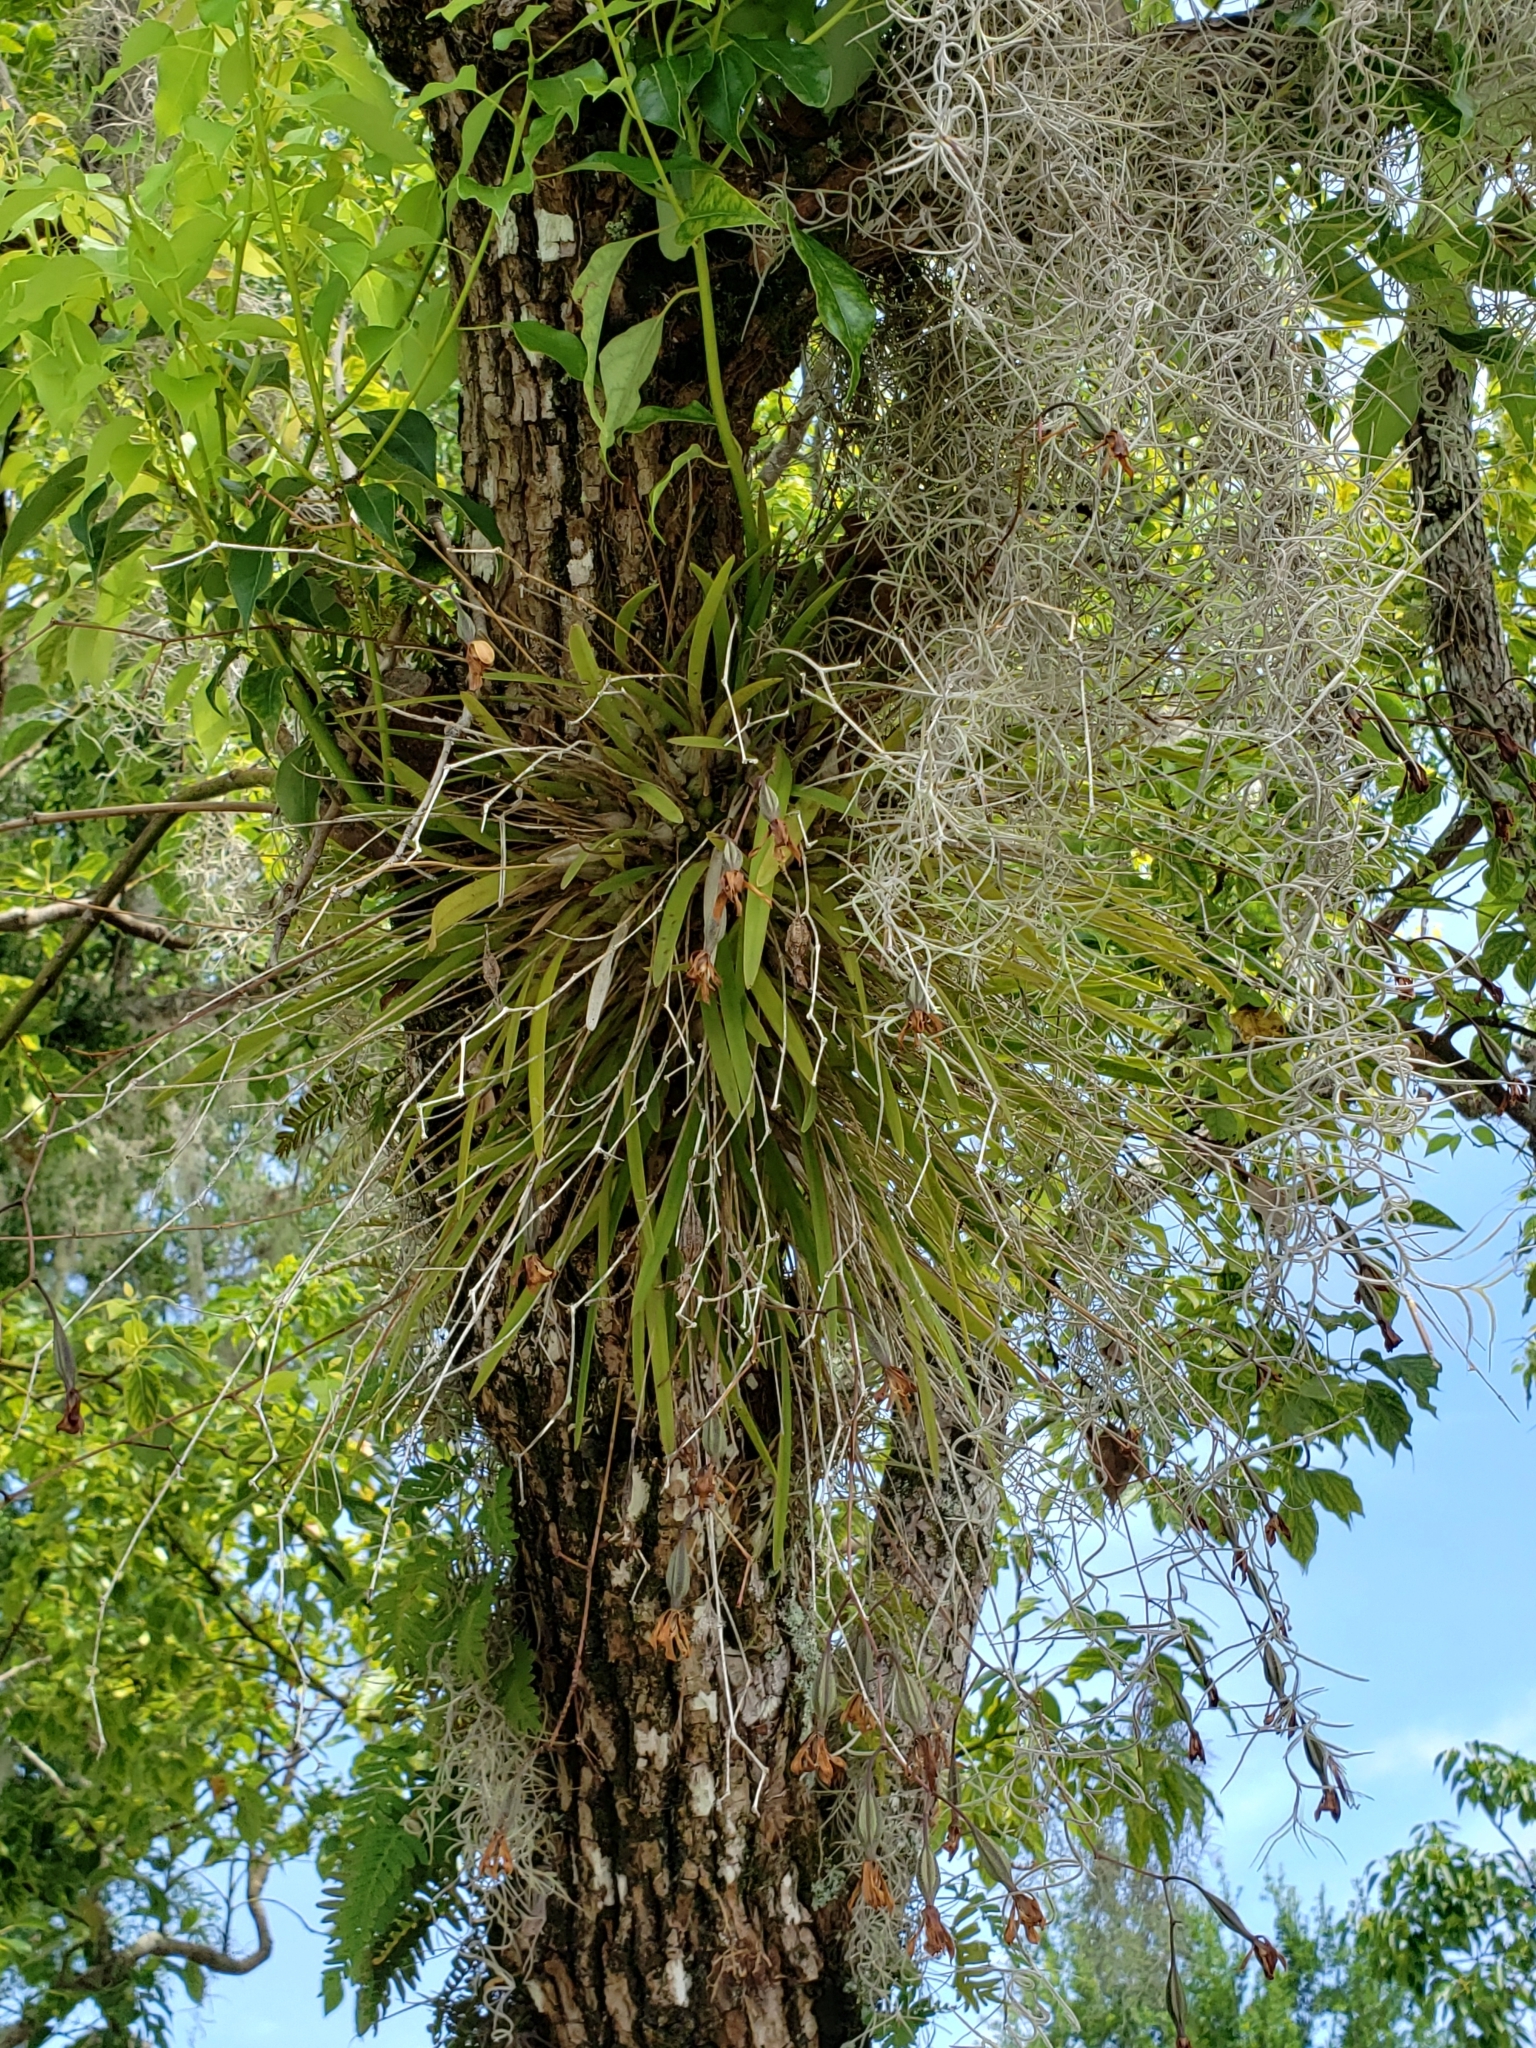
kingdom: Plantae
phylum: Tracheophyta
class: Liliopsida
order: Asparagales
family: Orchidaceae
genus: Encyclia
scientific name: Encyclia tampensis
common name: Florida butterfly orchid
